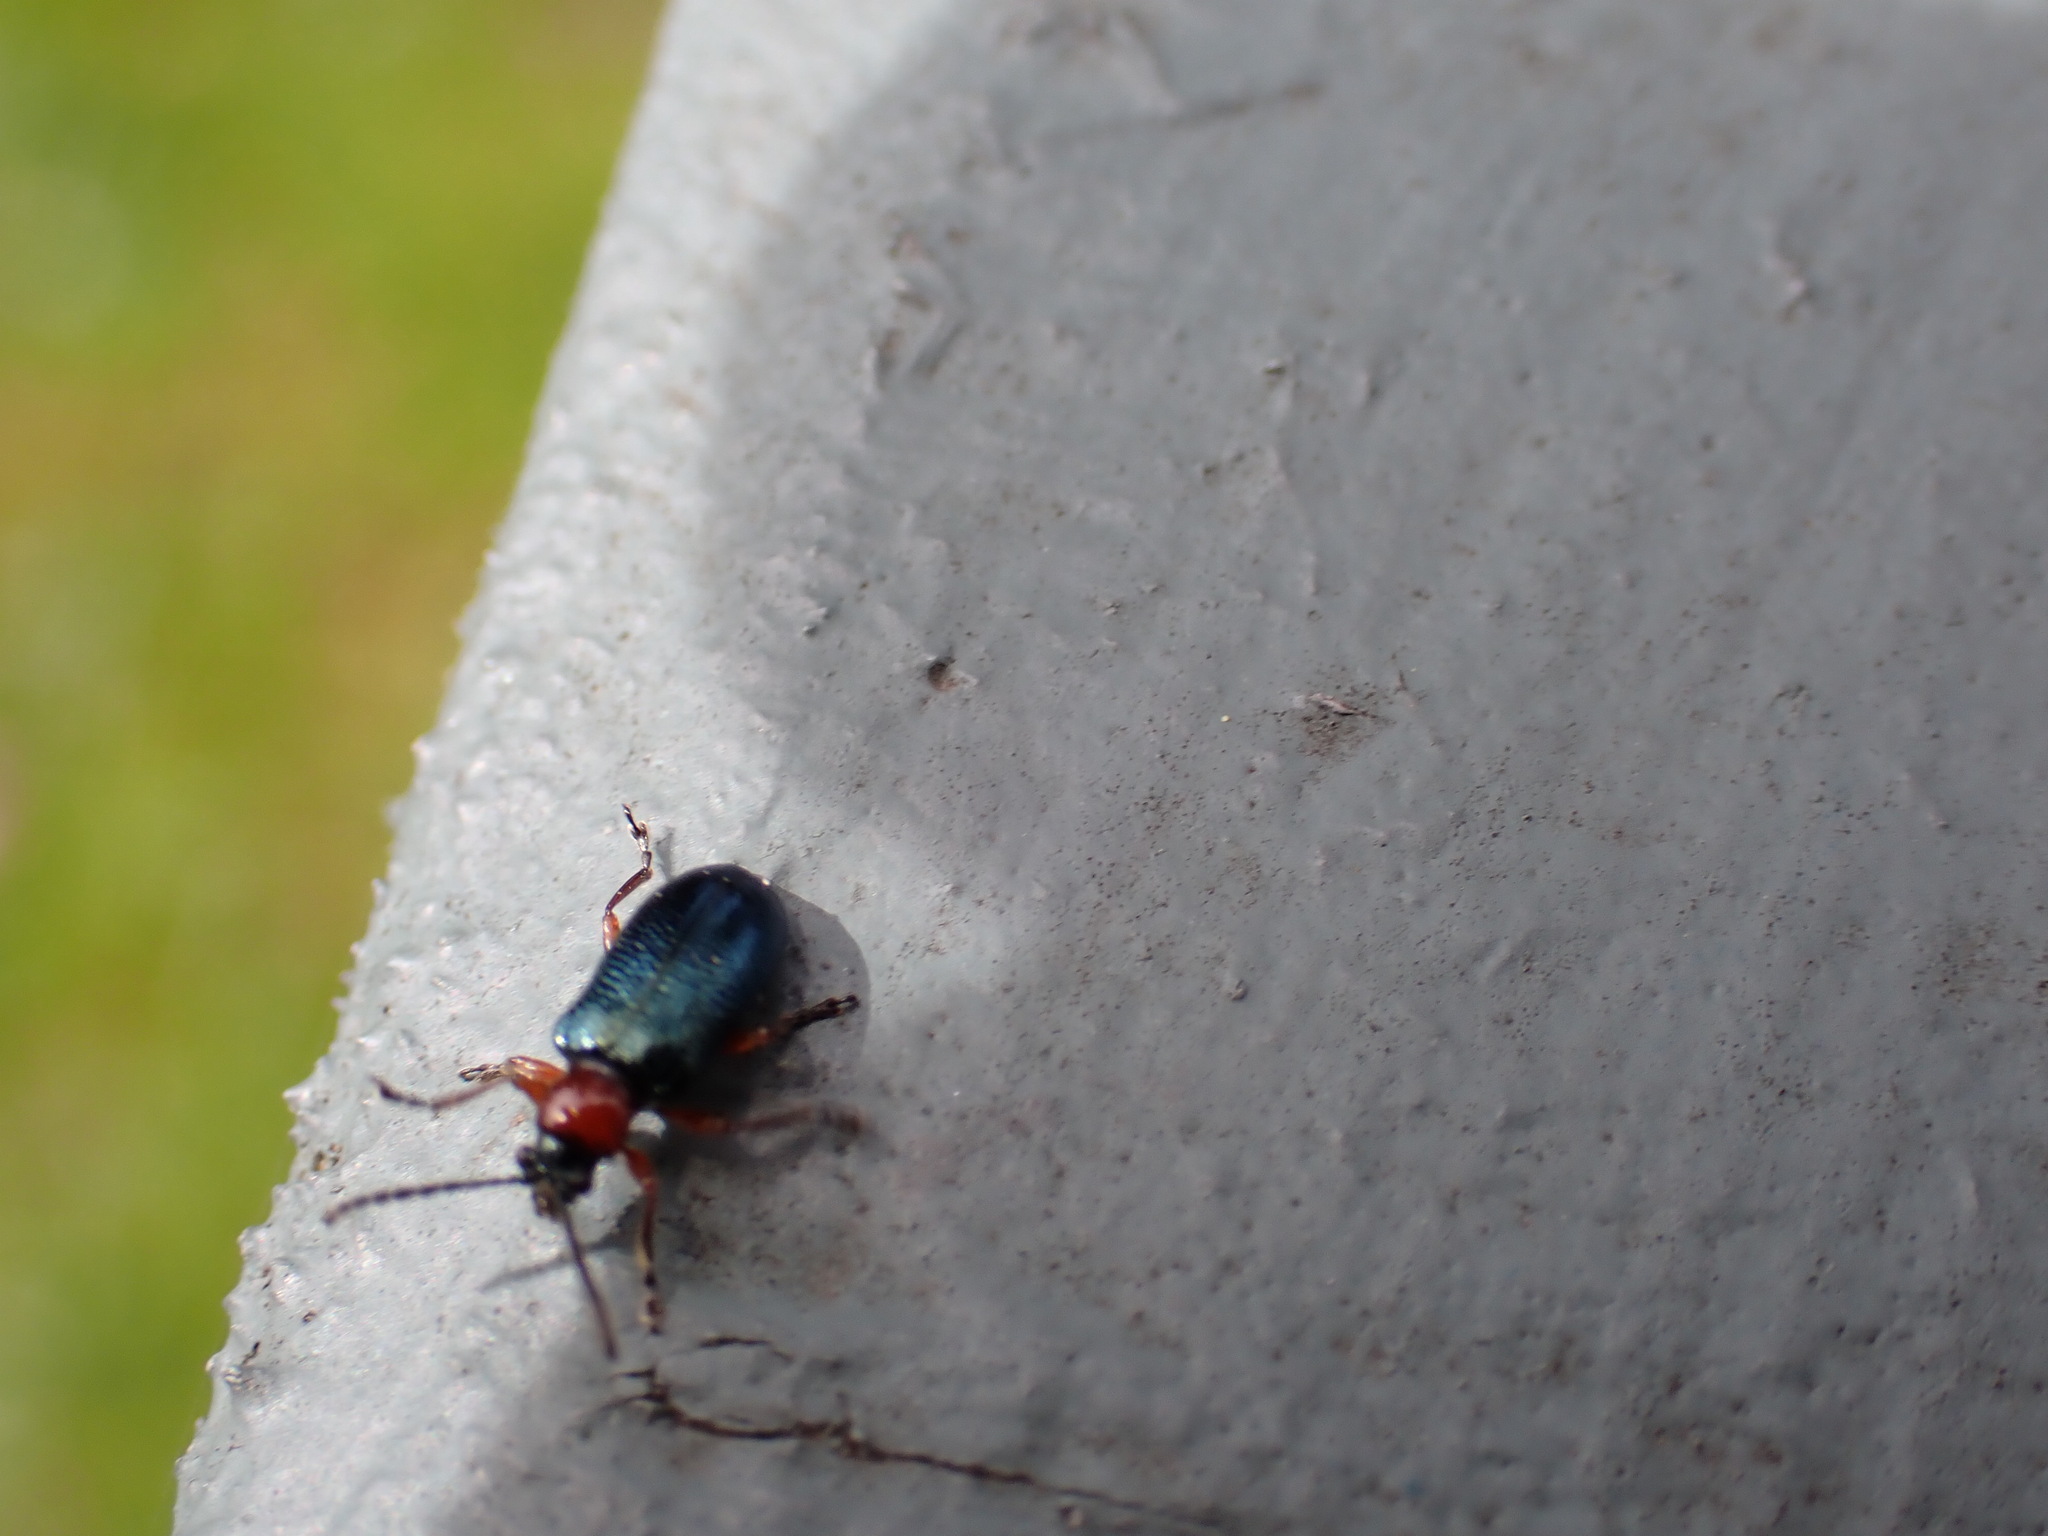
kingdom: Animalia
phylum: Arthropoda
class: Insecta
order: Coleoptera
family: Chrysomelidae
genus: Oulema
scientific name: Oulema melanopus
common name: Cereal leaf beetle
